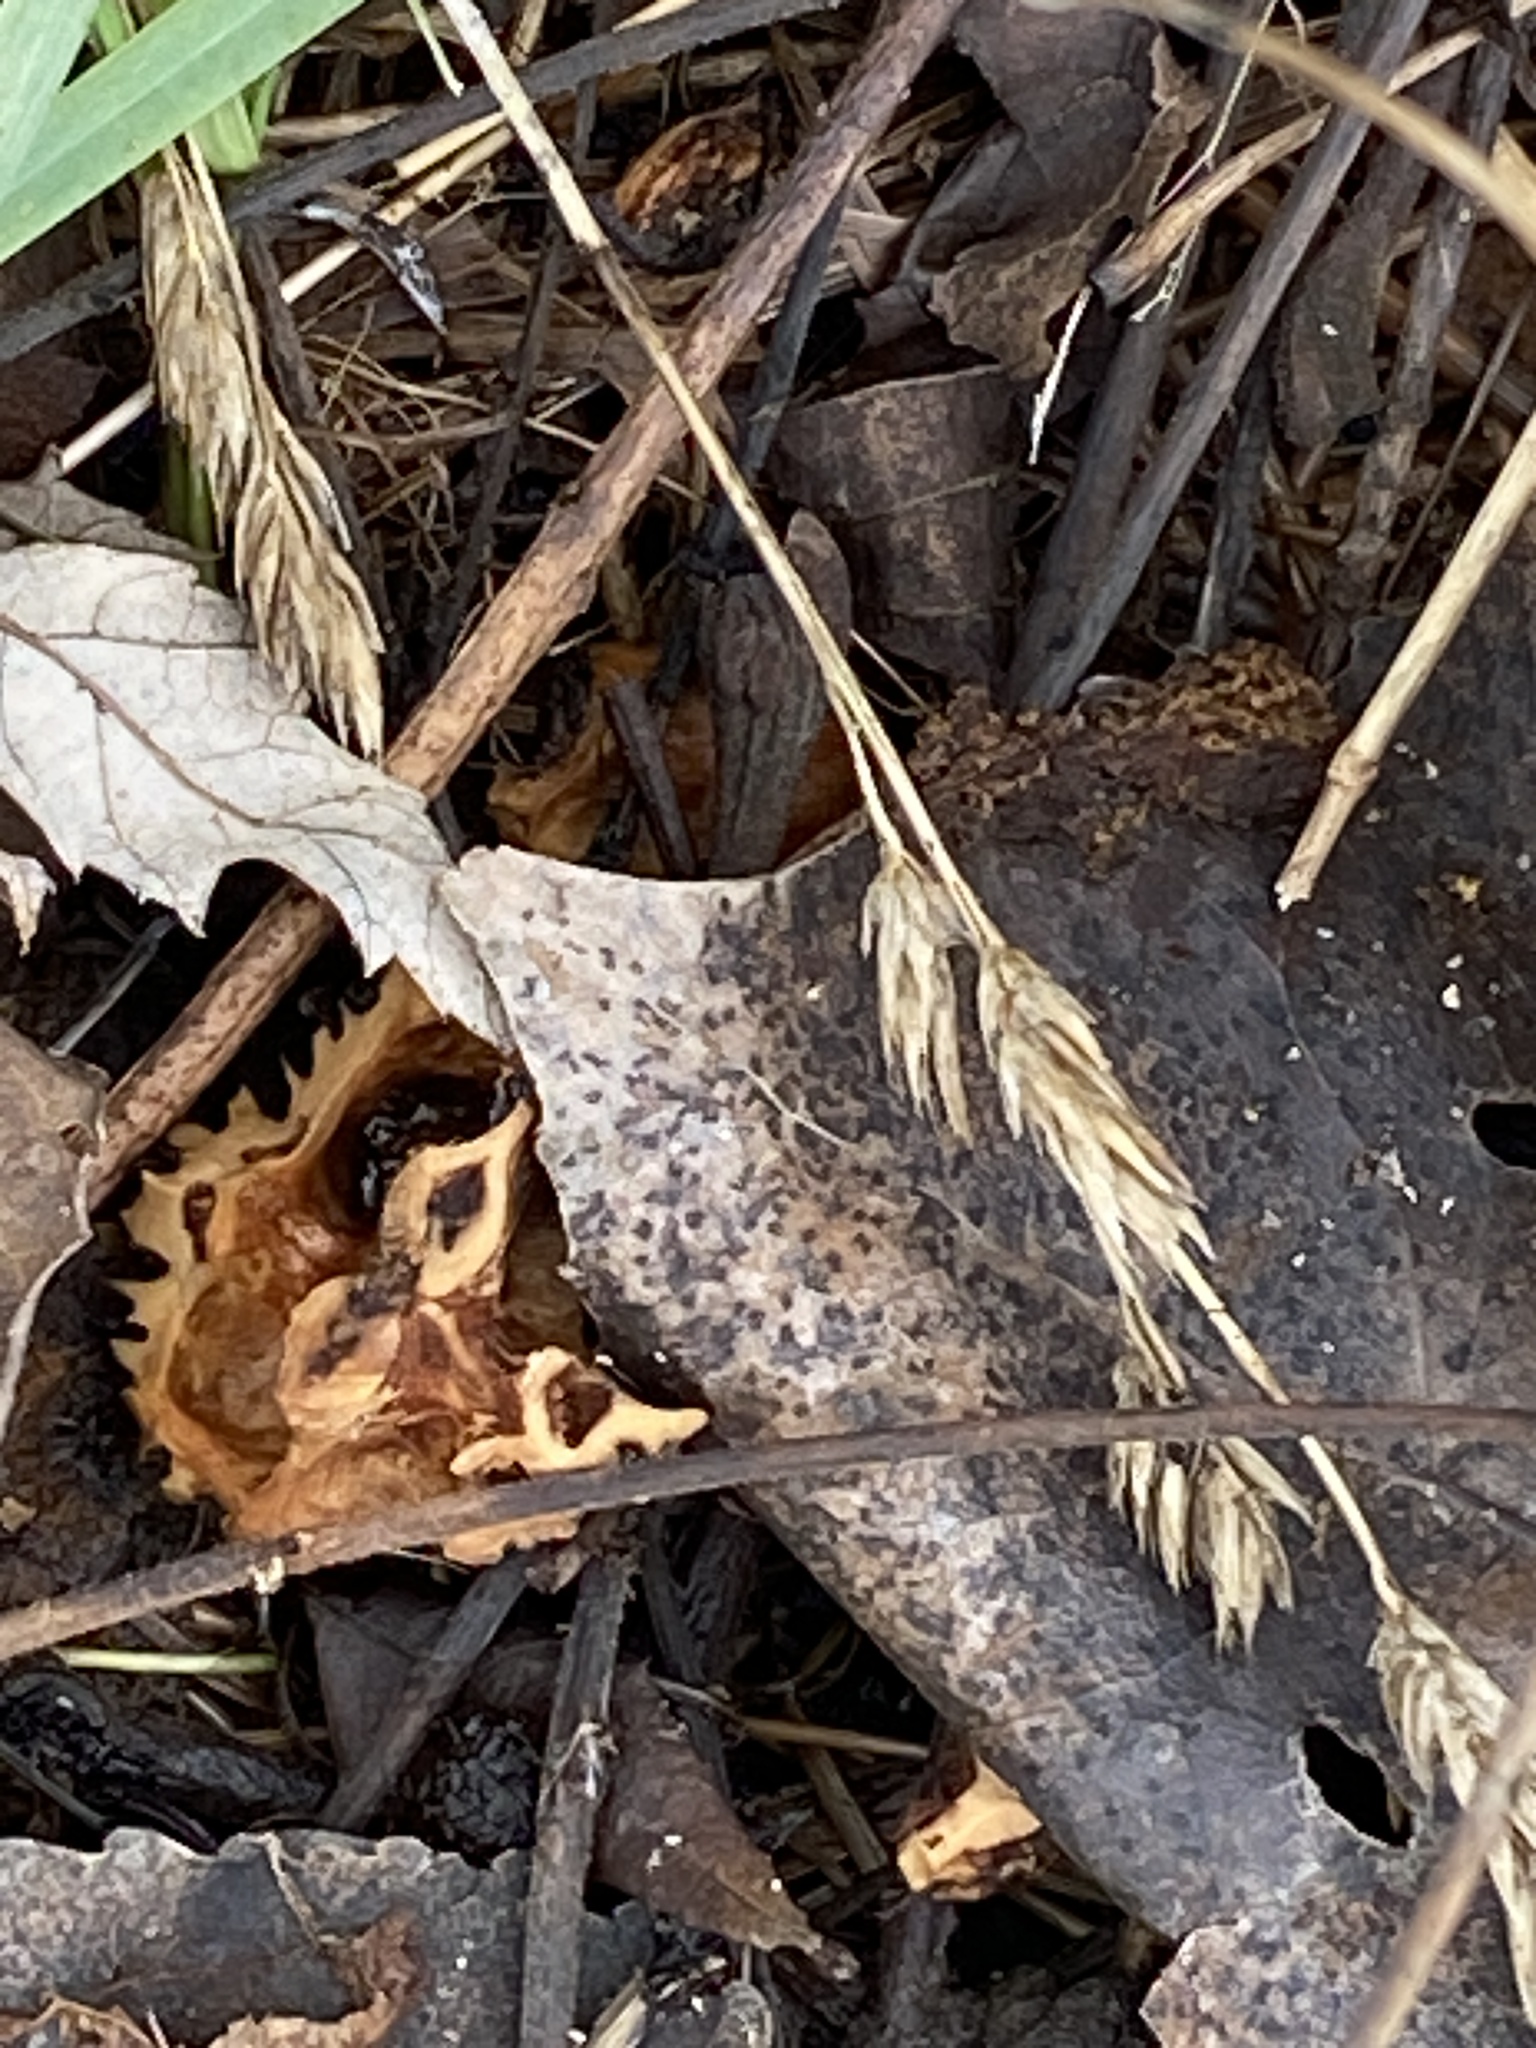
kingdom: Plantae
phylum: Tracheophyta
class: Magnoliopsida
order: Fagales
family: Juglandaceae
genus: Juglans
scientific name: Juglans nigra
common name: Black walnut
